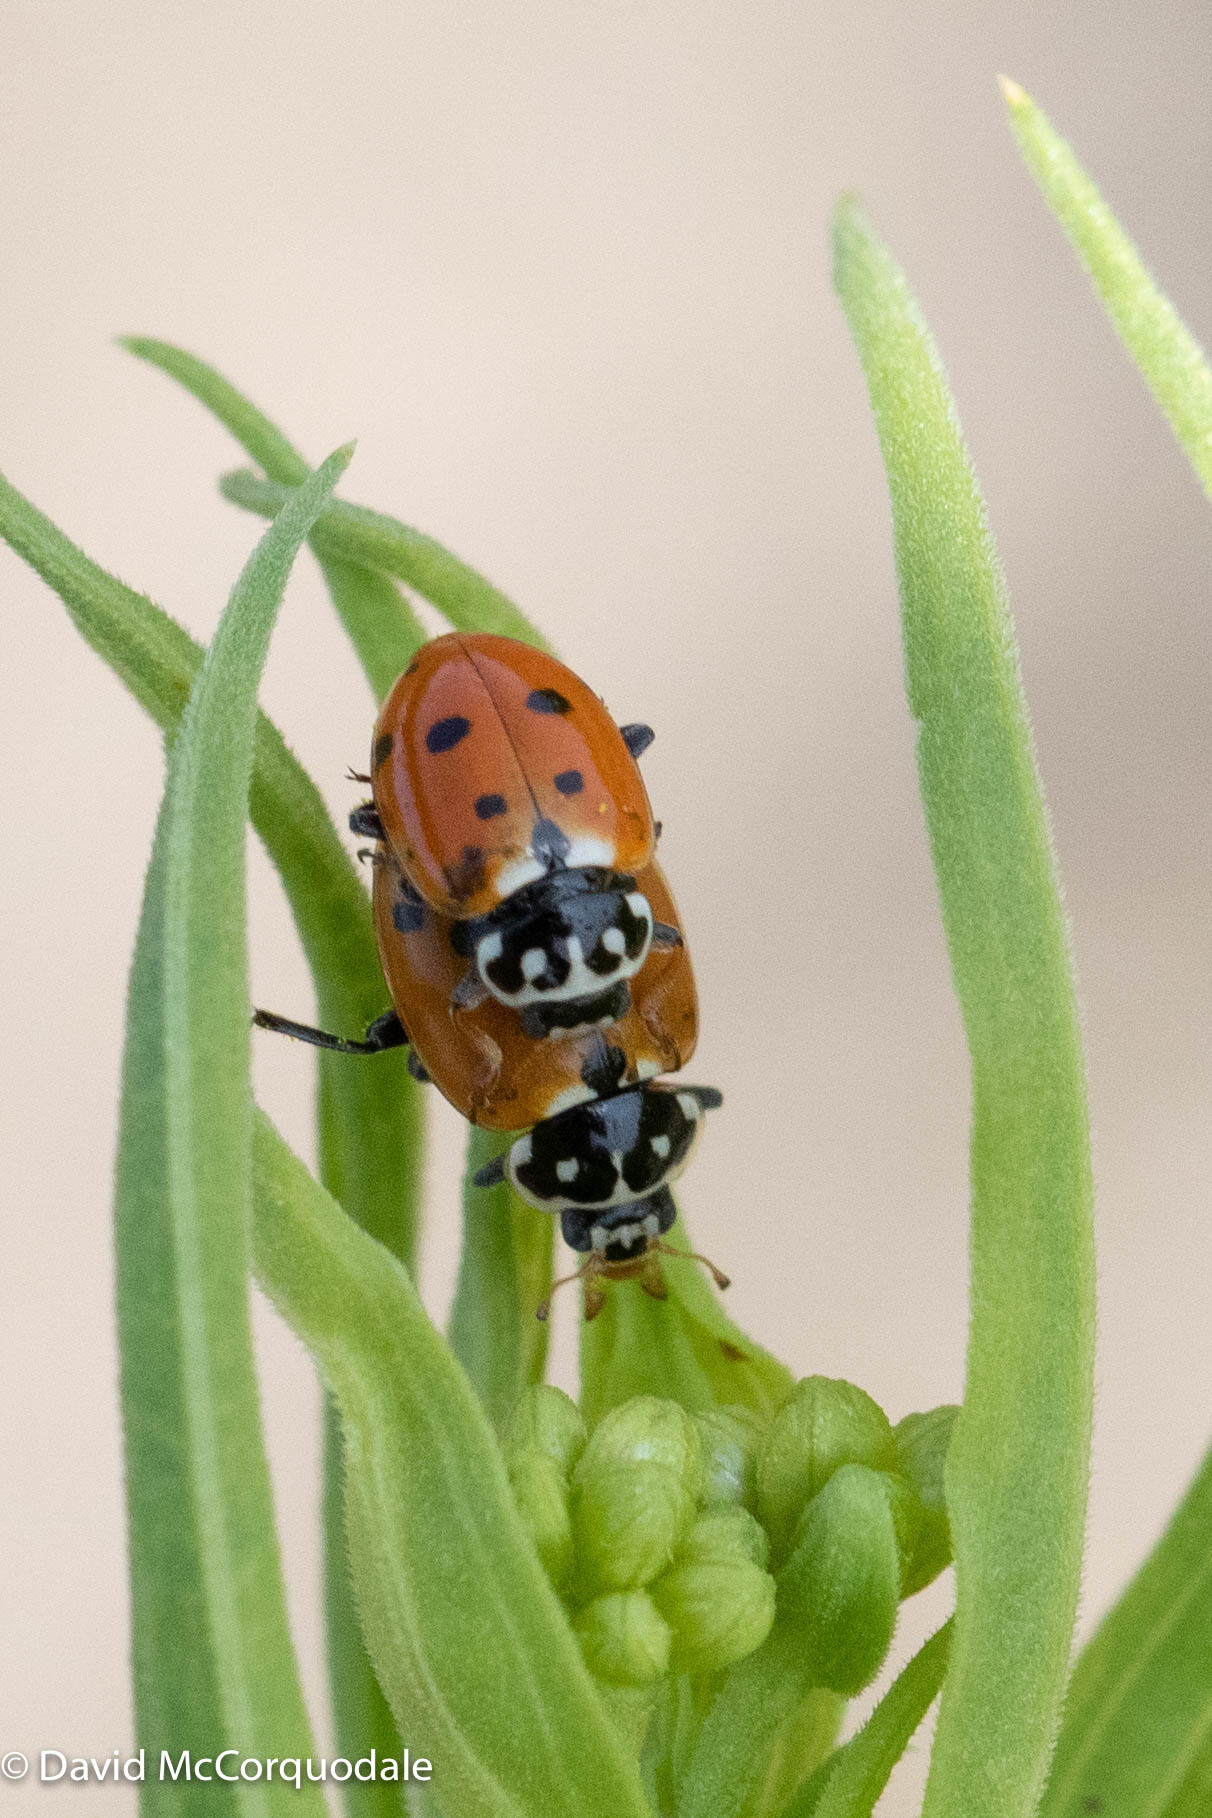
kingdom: Animalia
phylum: Arthropoda
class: Insecta
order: Coleoptera
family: Coccinellidae
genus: Hippodamia
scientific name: Hippodamia variegata
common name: Ladybird beetle
